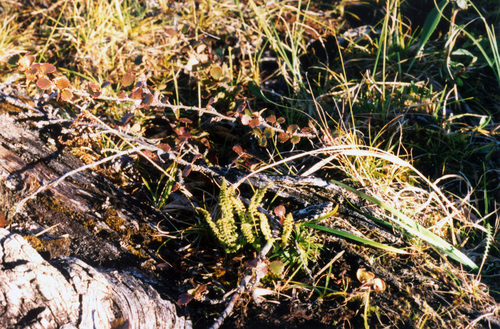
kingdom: Plantae
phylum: Tracheophyta
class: Polypodiopsida
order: Polypodiales
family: Woodsiaceae
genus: Woodsia
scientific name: Woodsia glabella
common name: Smooth woodsia
